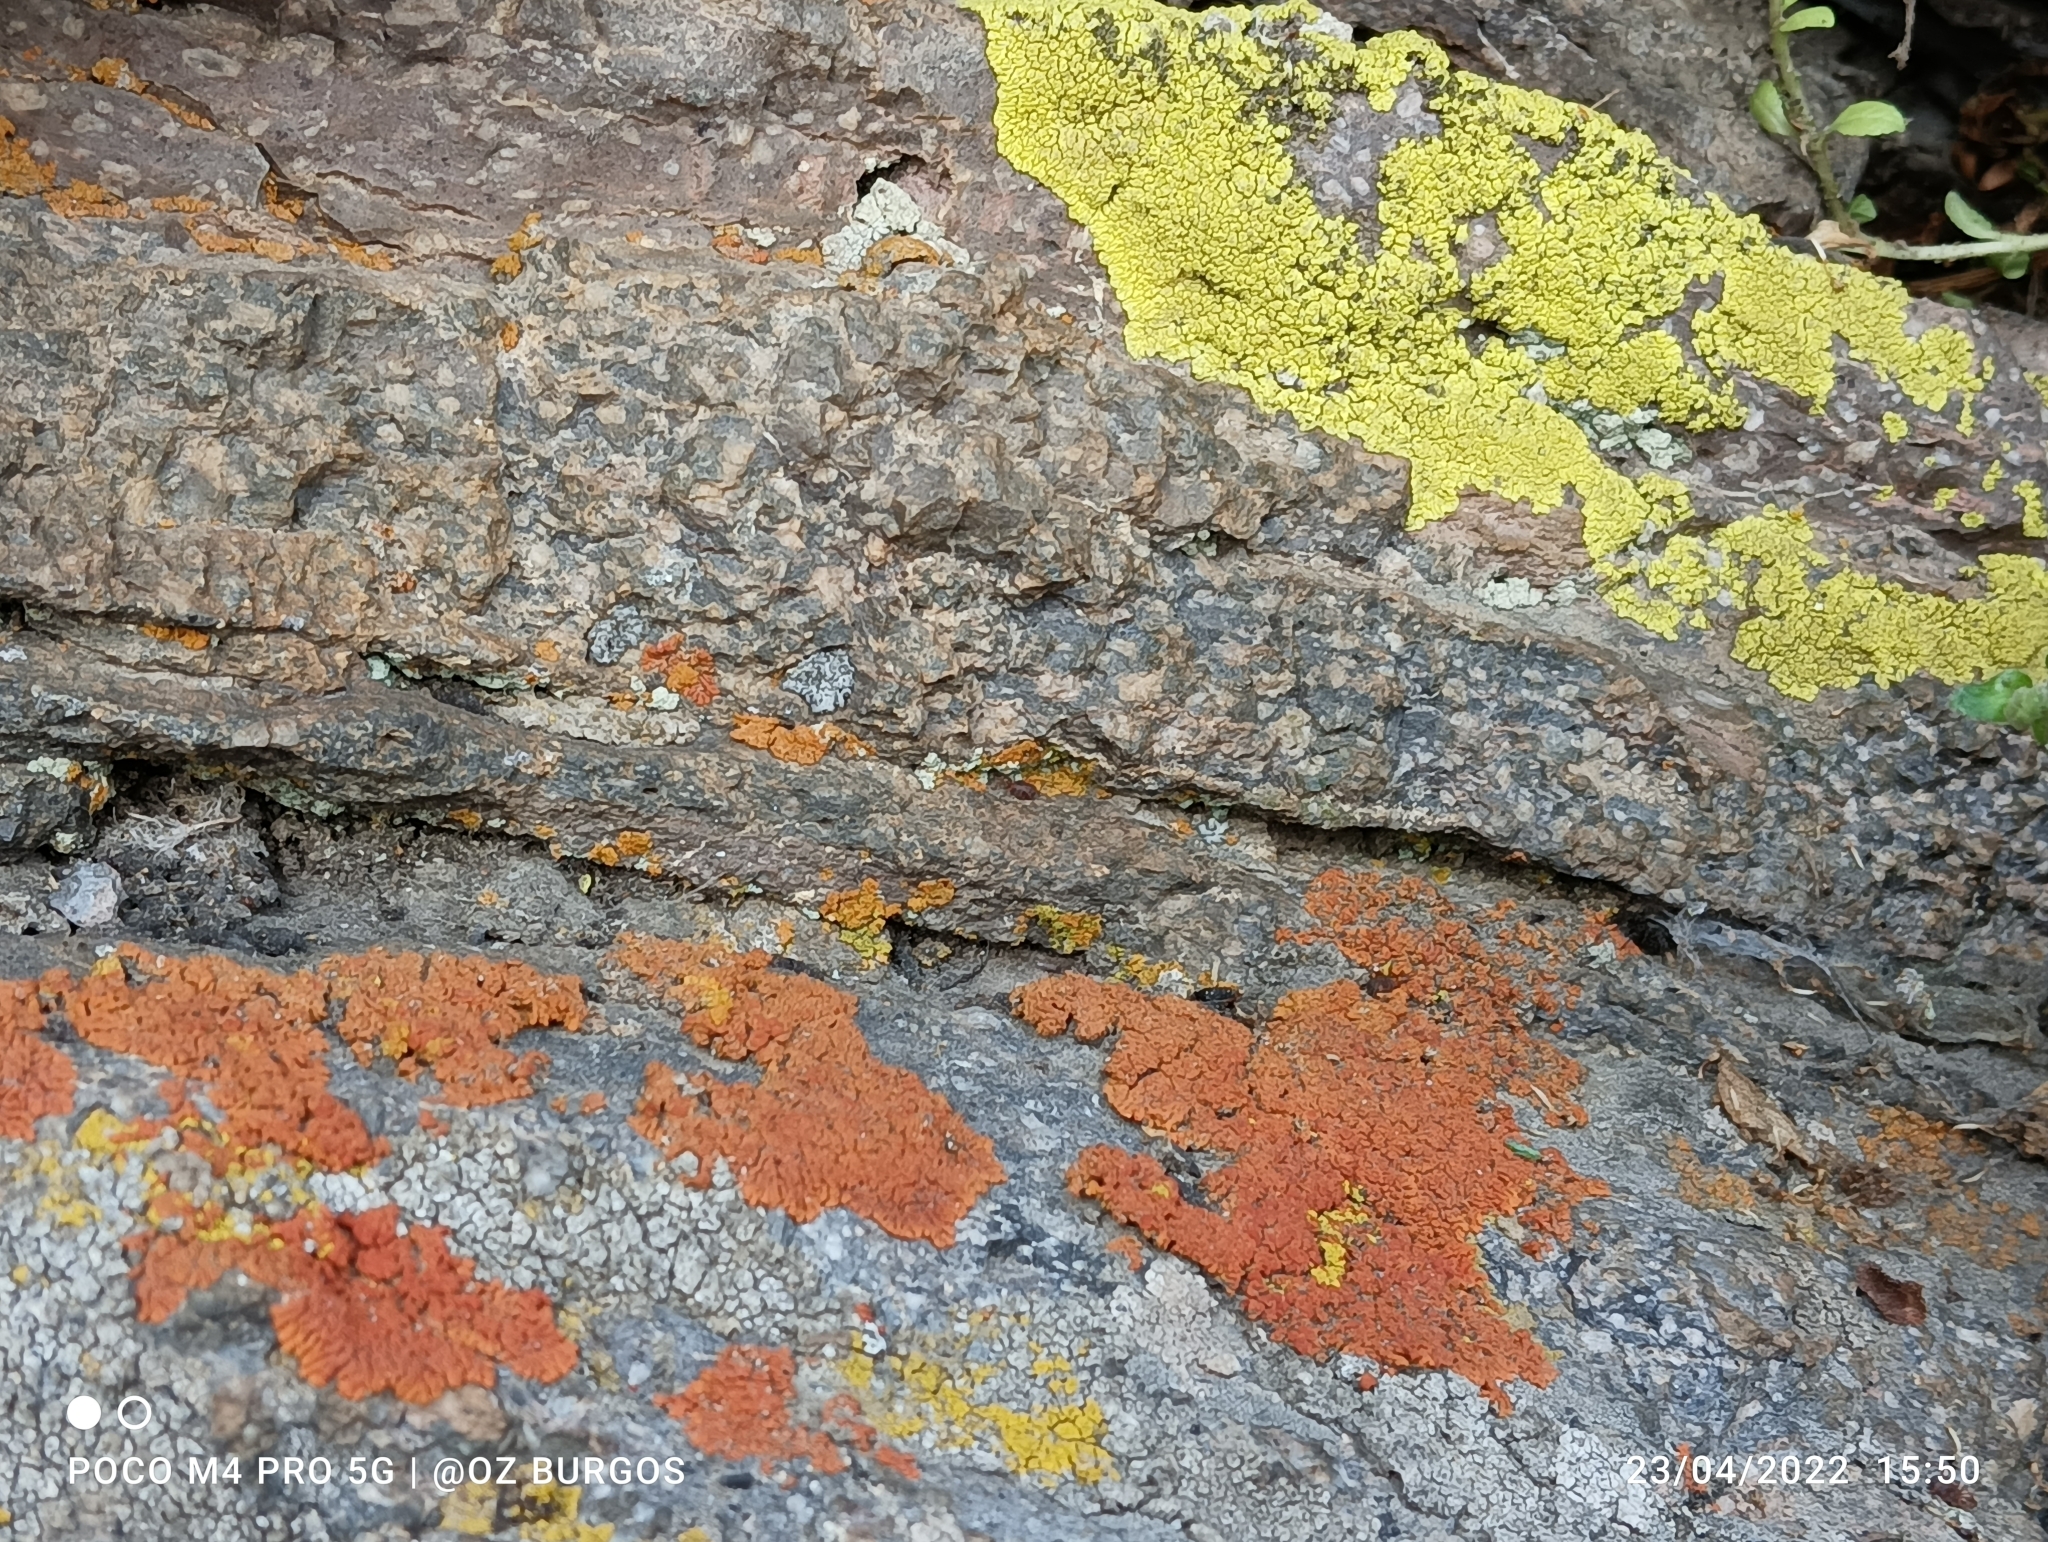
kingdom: Fungi
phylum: Ascomycota
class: Lecanoromycetes
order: Teloschistales
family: Teloschistaceae
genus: Xanthoria
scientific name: Xanthoria elegans
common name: Elegant sunburst lichen
